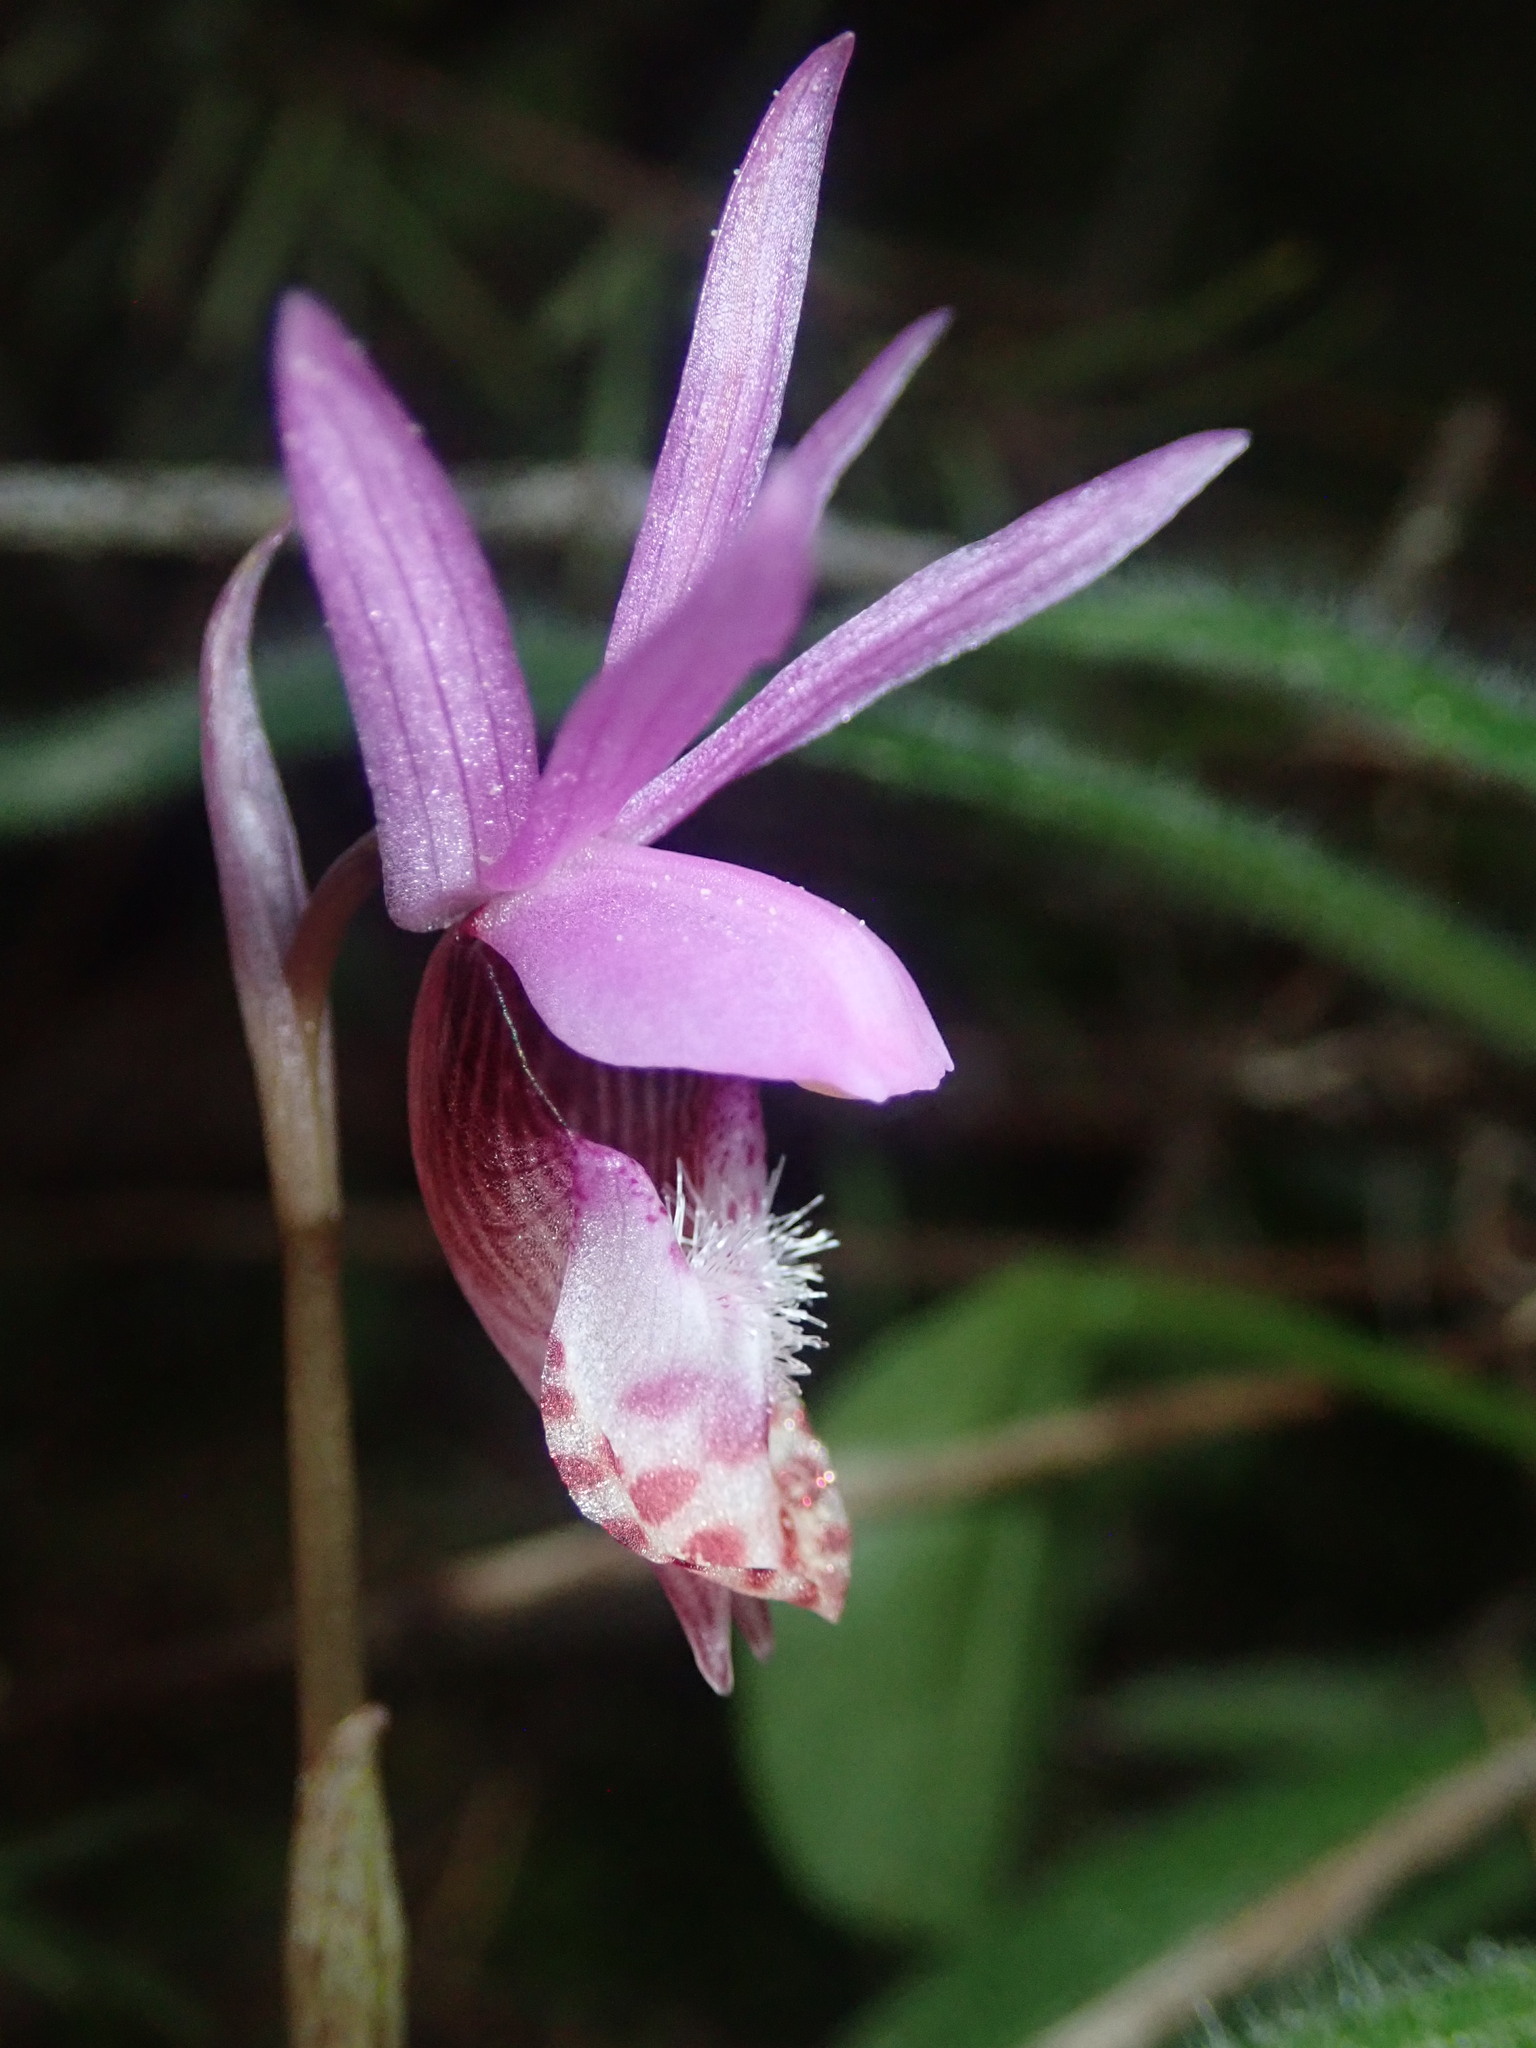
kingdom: Plantae
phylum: Tracheophyta
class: Liliopsida
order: Asparagales
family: Orchidaceae
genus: Calypso
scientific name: Calypso bulbosa
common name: Calypso
